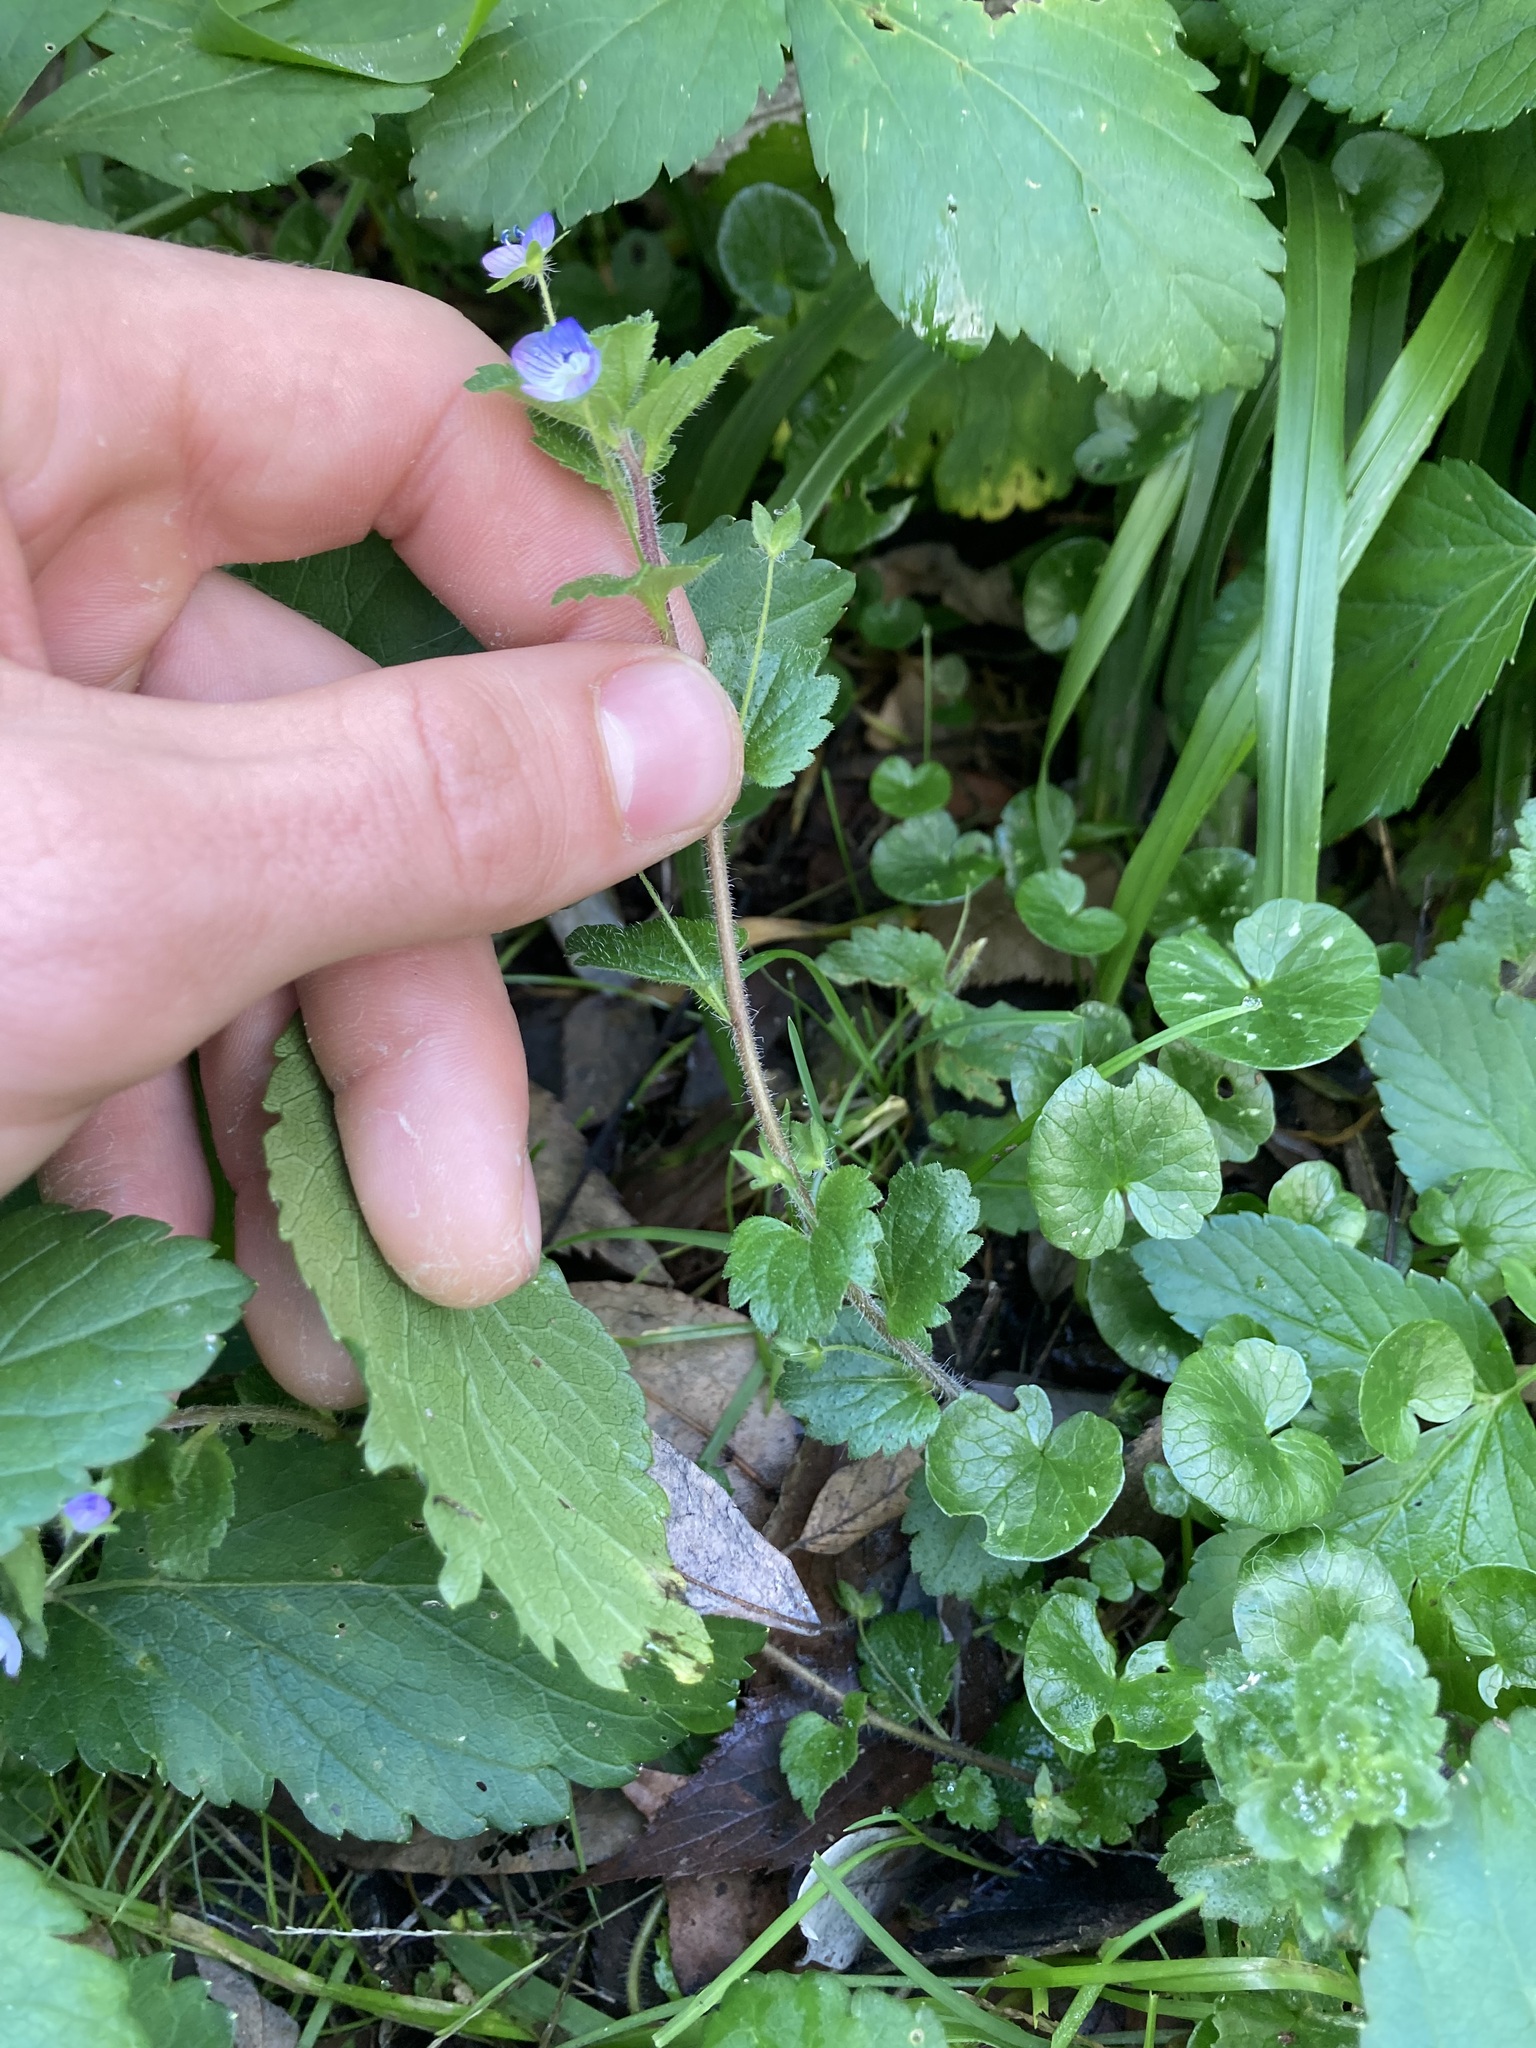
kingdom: Plantae
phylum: Tracheophyta
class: Magnoliopsida
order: Lamiales
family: Plantaginaceae
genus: Veronica
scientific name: Veronica persica
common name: Common field-speedwell
